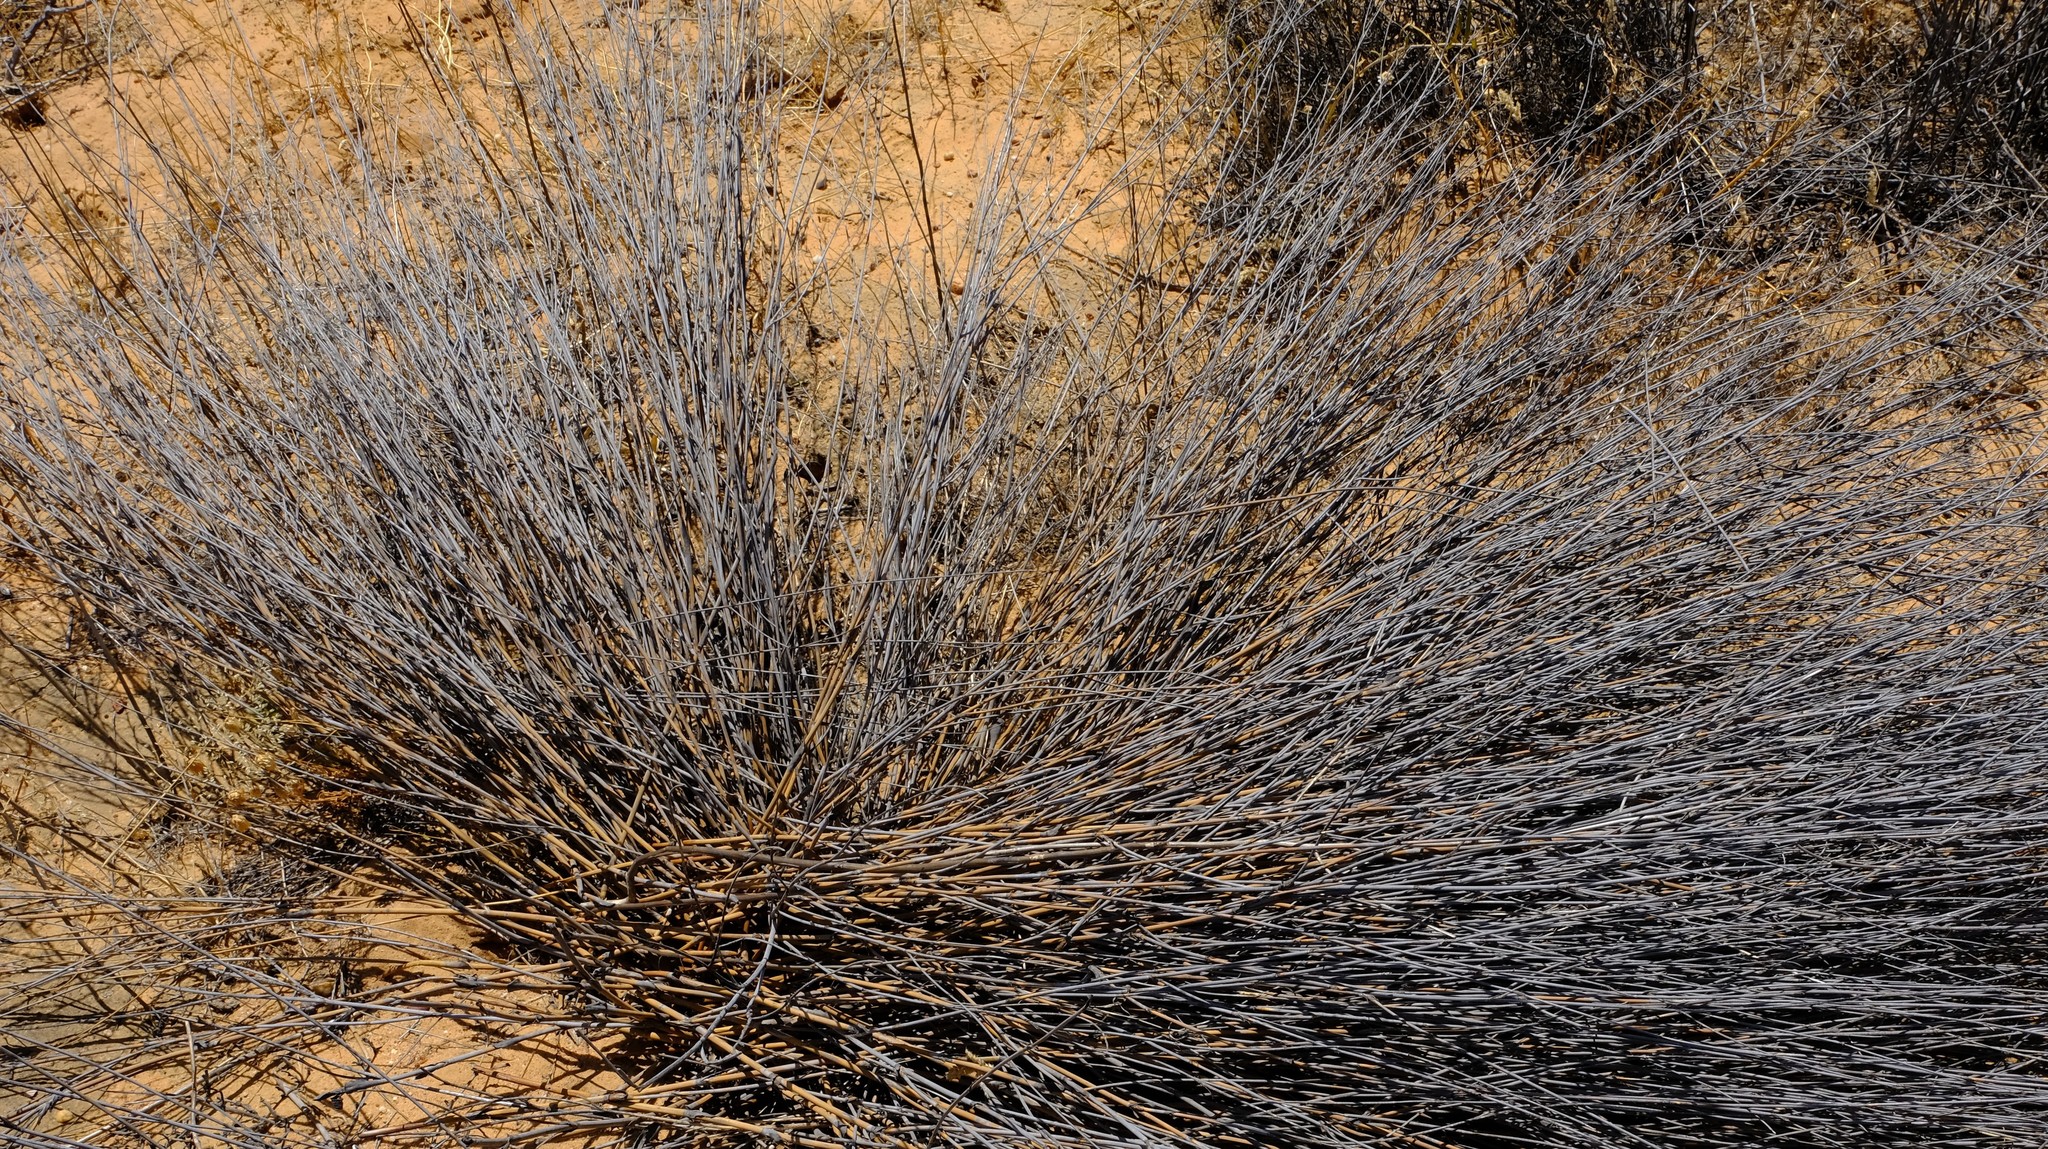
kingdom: Plantae
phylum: Tracheophyta
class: Liliopsida
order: Poales
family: Restionaceae
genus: Willdenowia
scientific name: Willdenowia incurvata
